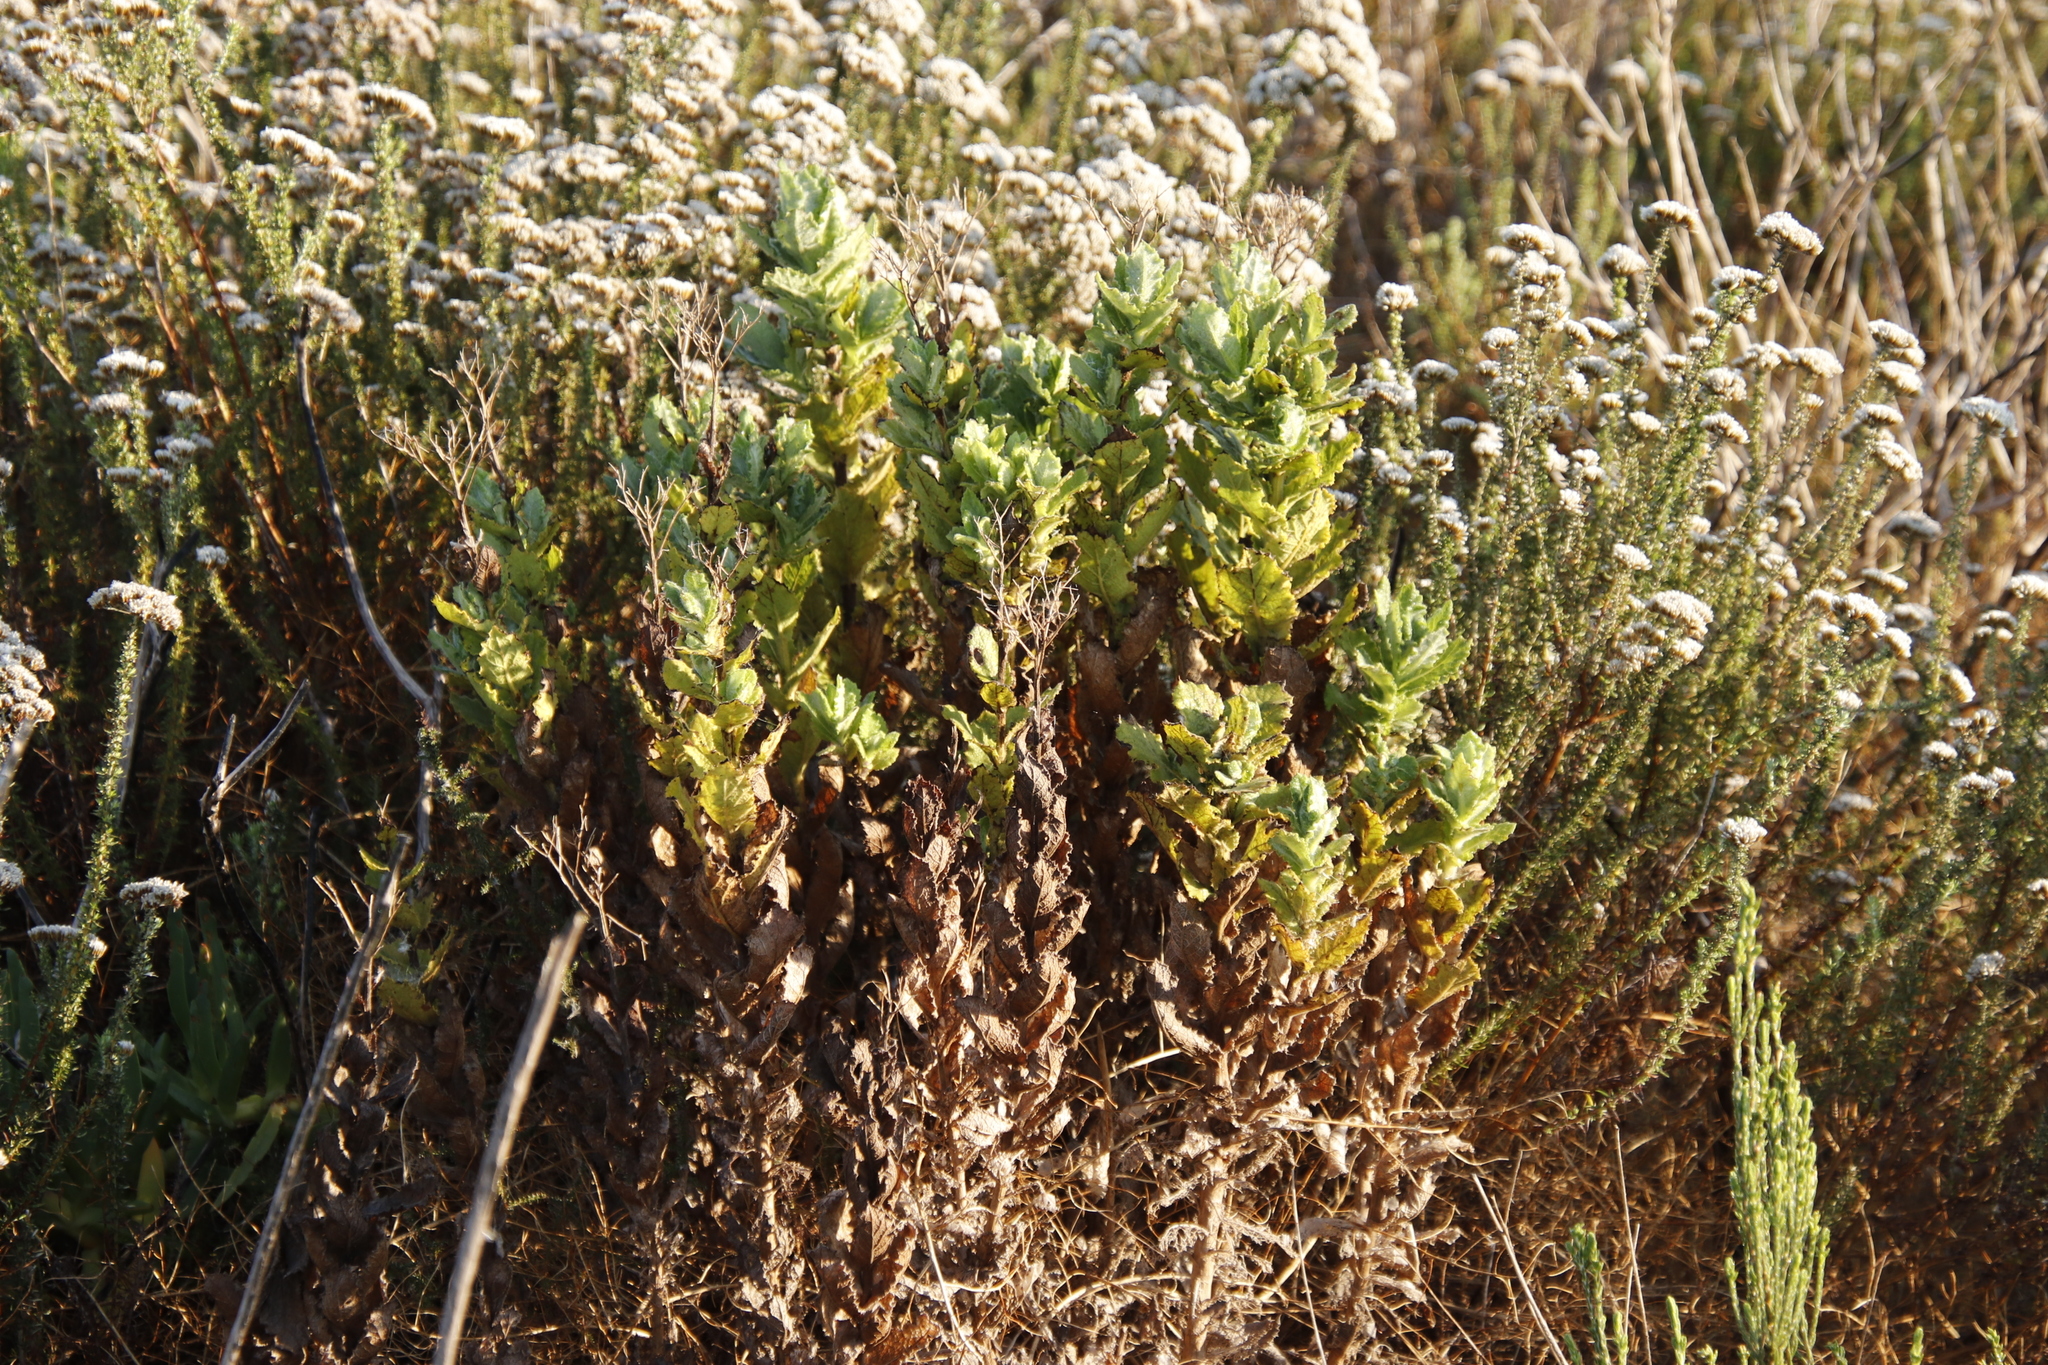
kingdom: Plantae
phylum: Tracheophyta
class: Magnoliopsida
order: Asterales
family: Asteraceae
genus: Senecio
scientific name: Senecio rigidus
